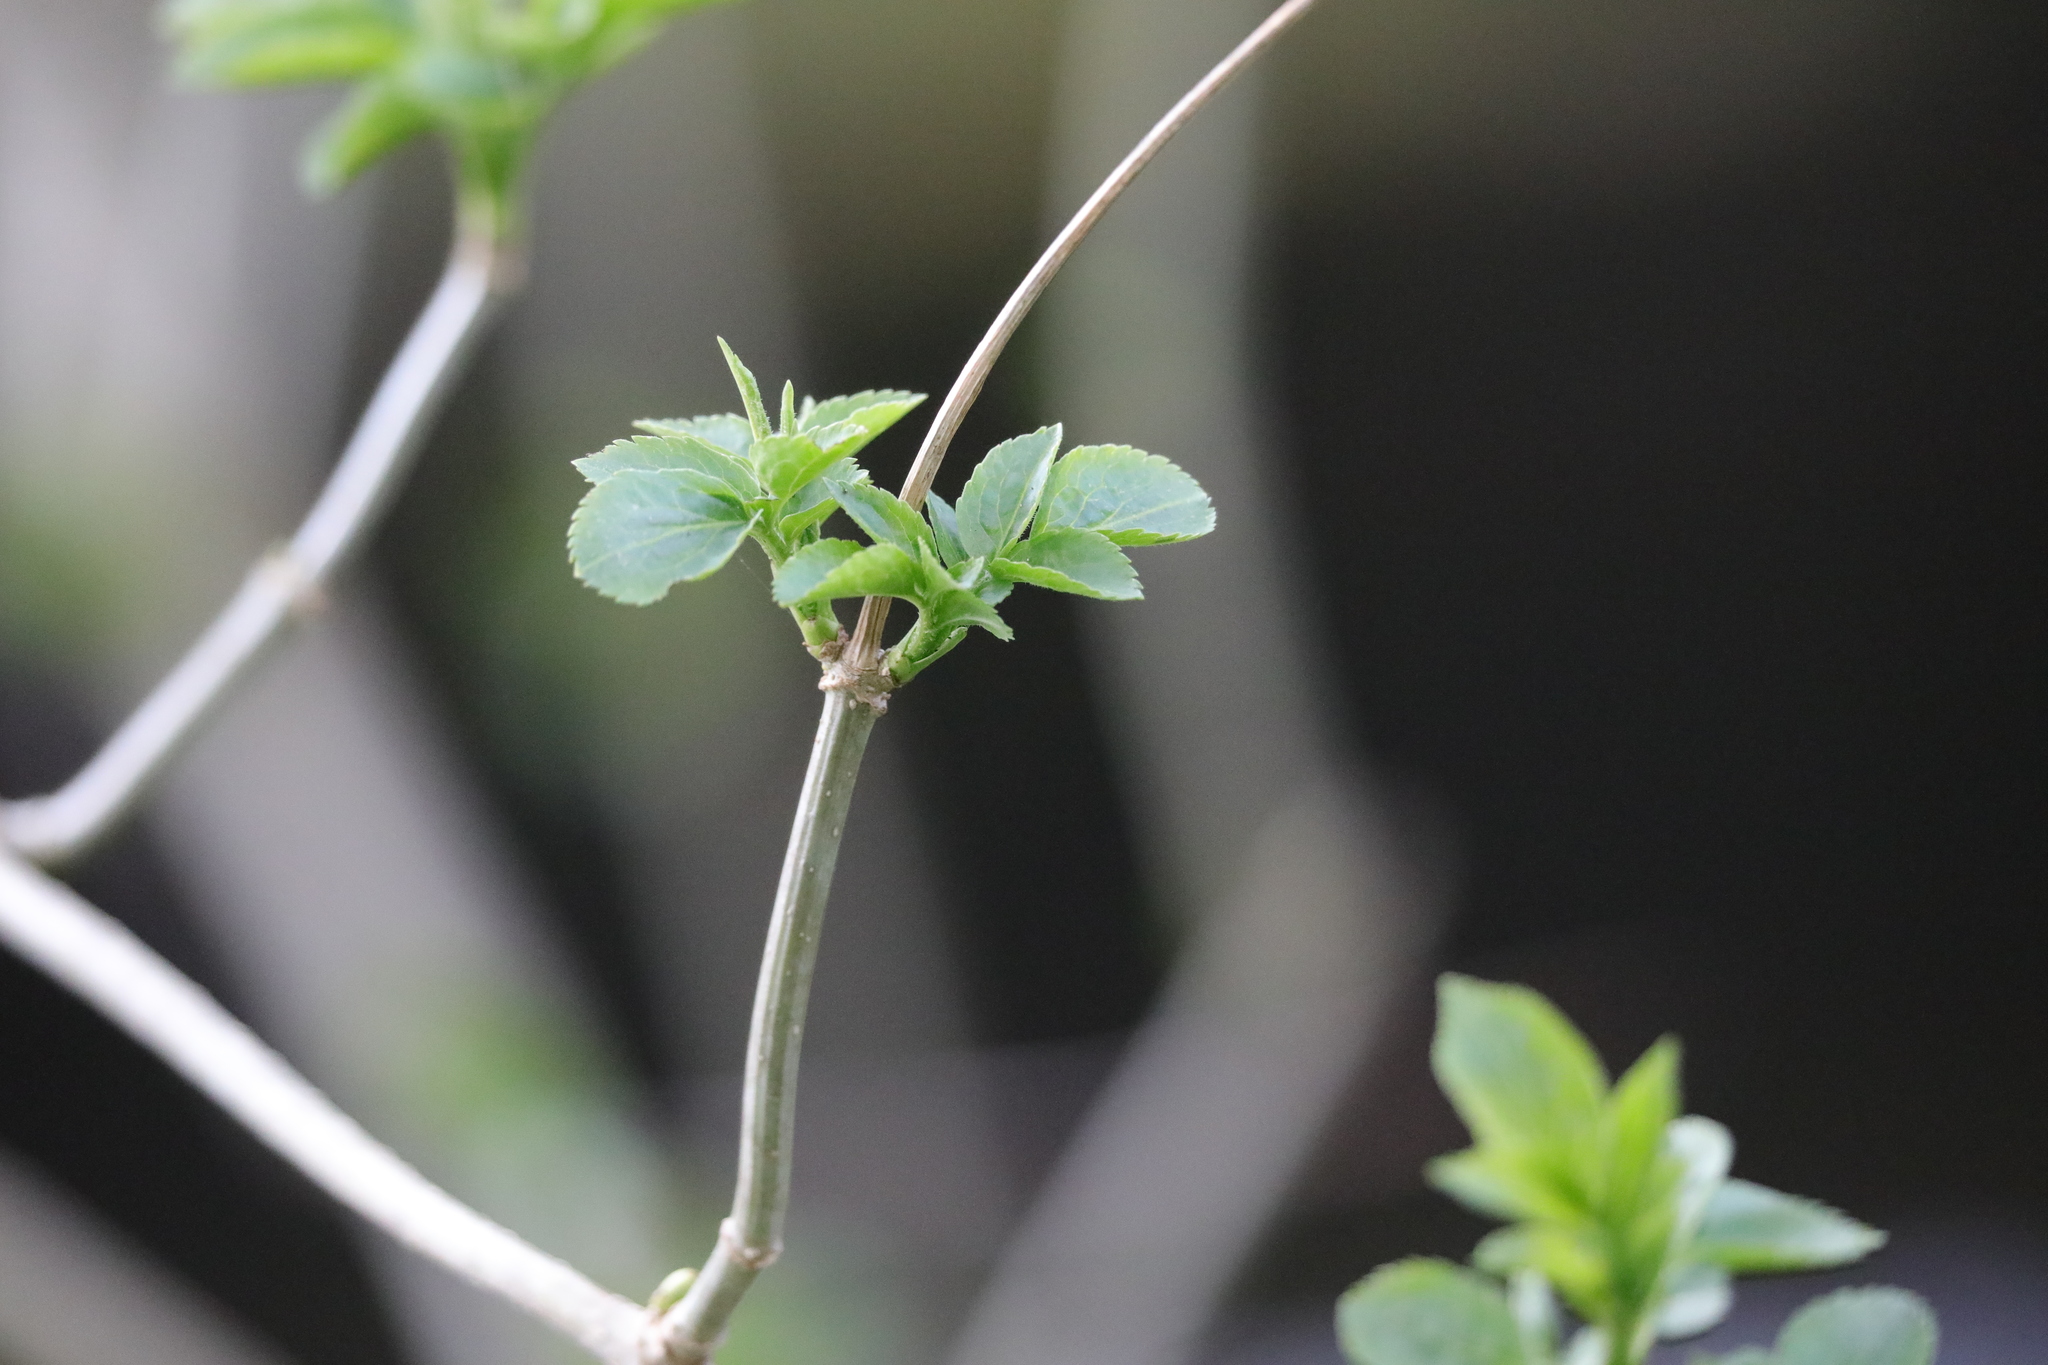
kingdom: Plantae
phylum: Tracheophyta
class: Magnoliopsida
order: Dipsacales
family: Viburnaceae
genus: Sambucus
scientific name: Sambucus nigra
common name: Elder
